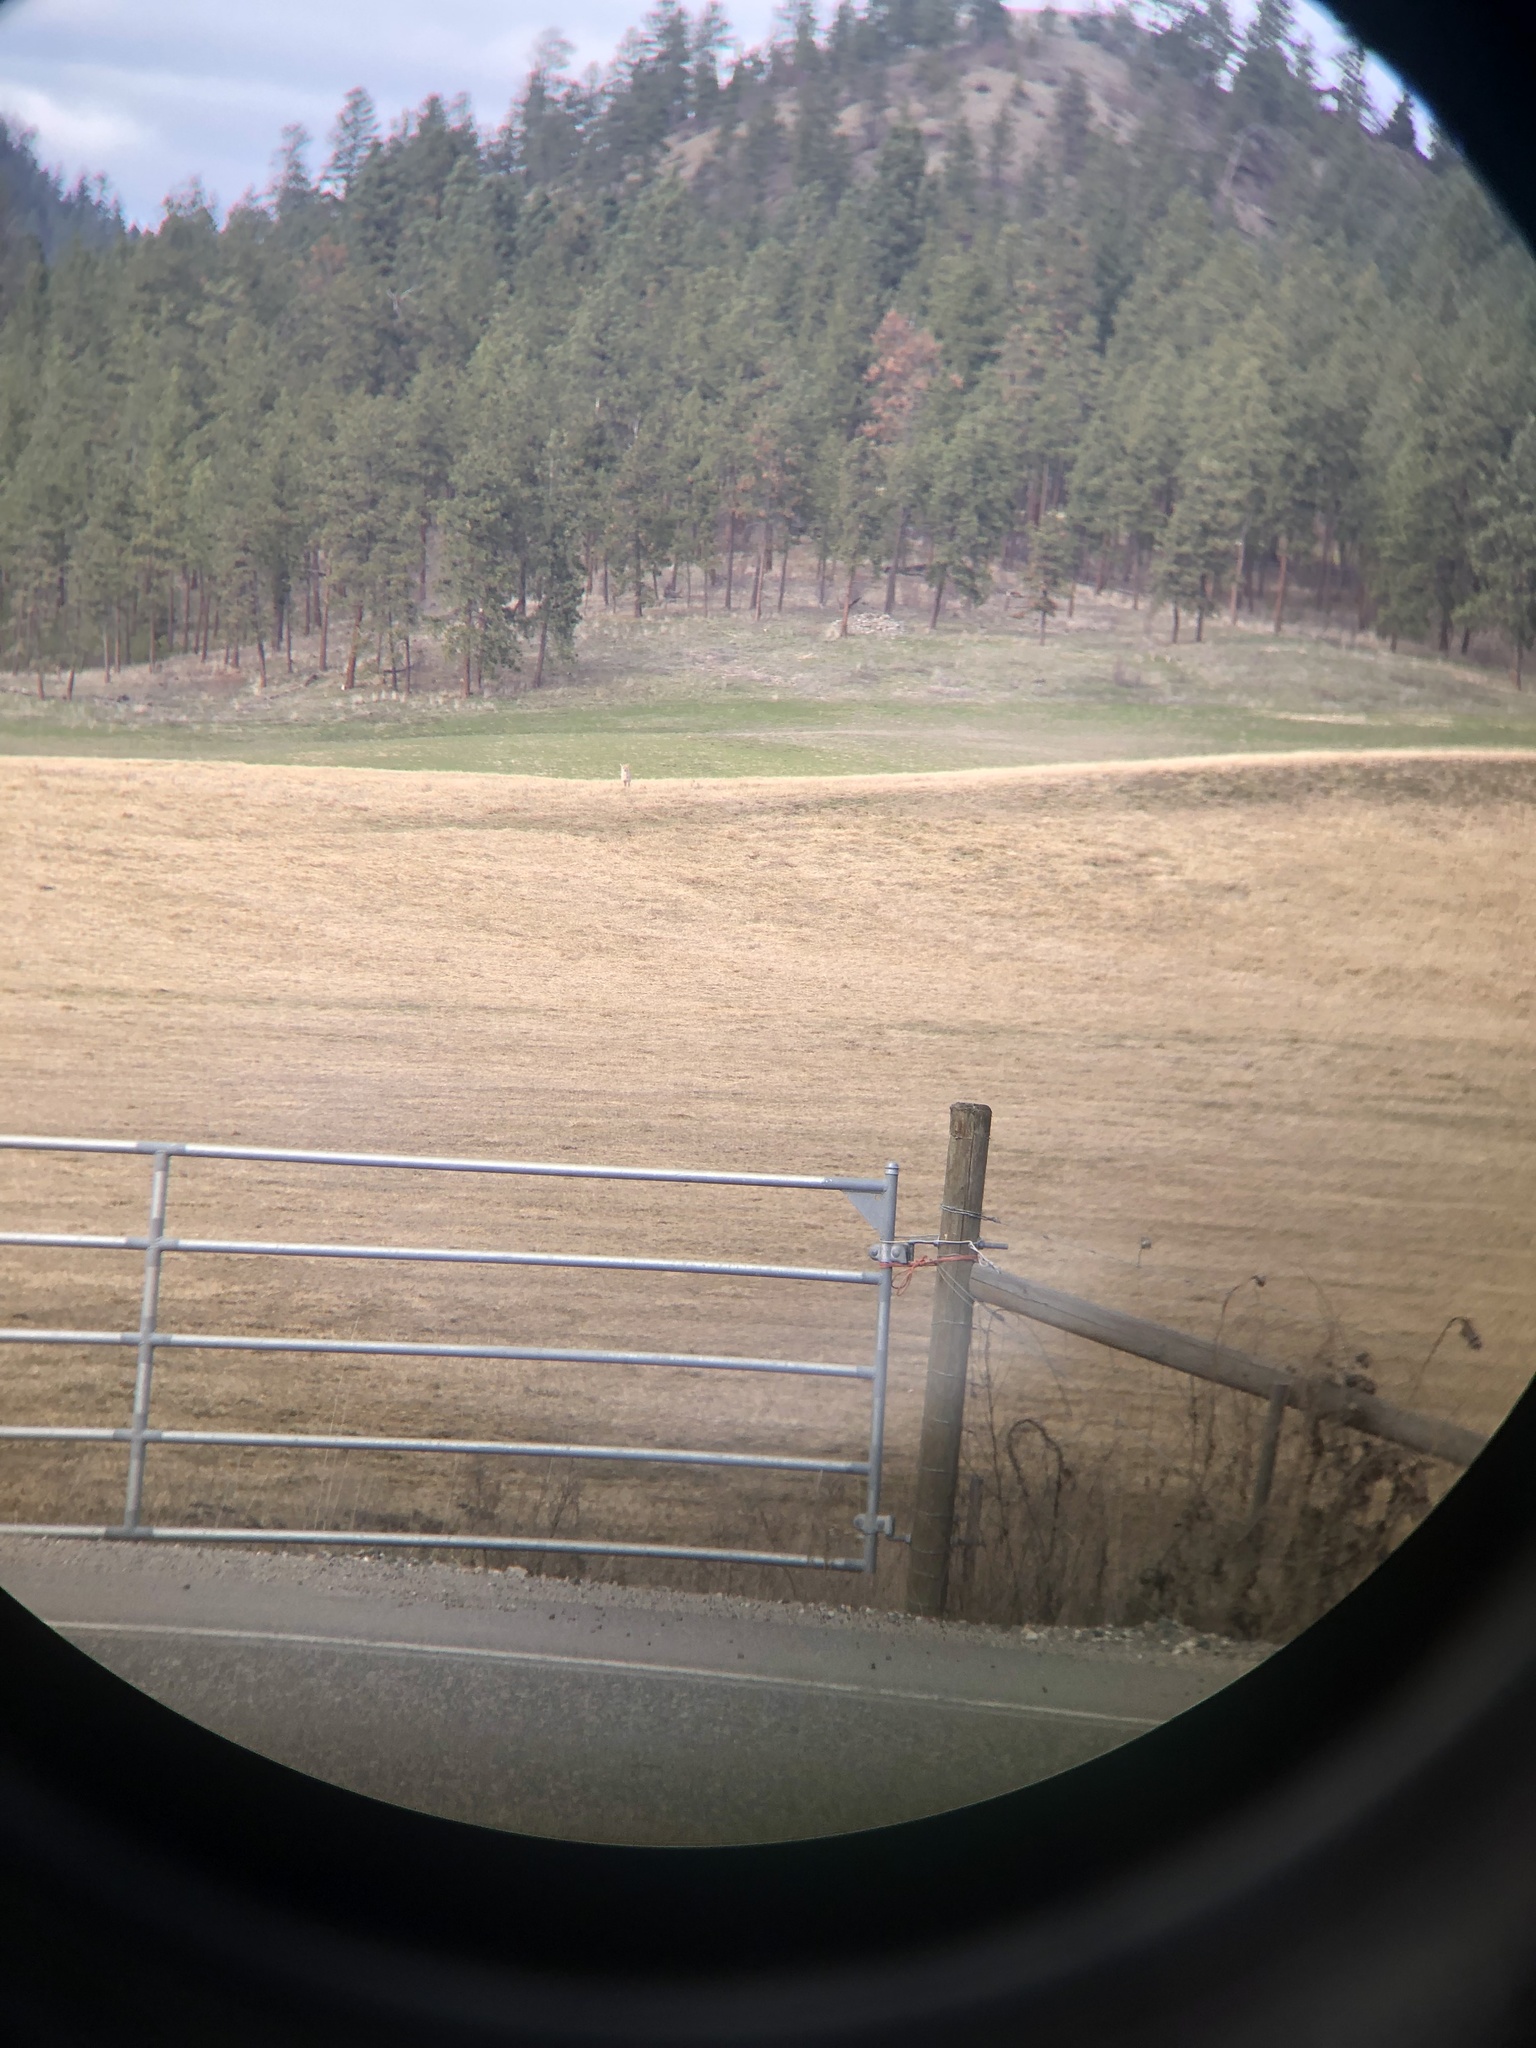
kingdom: Animalia
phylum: Chordata
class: Mammalia
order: Carnivora
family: Canidae
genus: Canis
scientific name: Canis latrans
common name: Coyote
